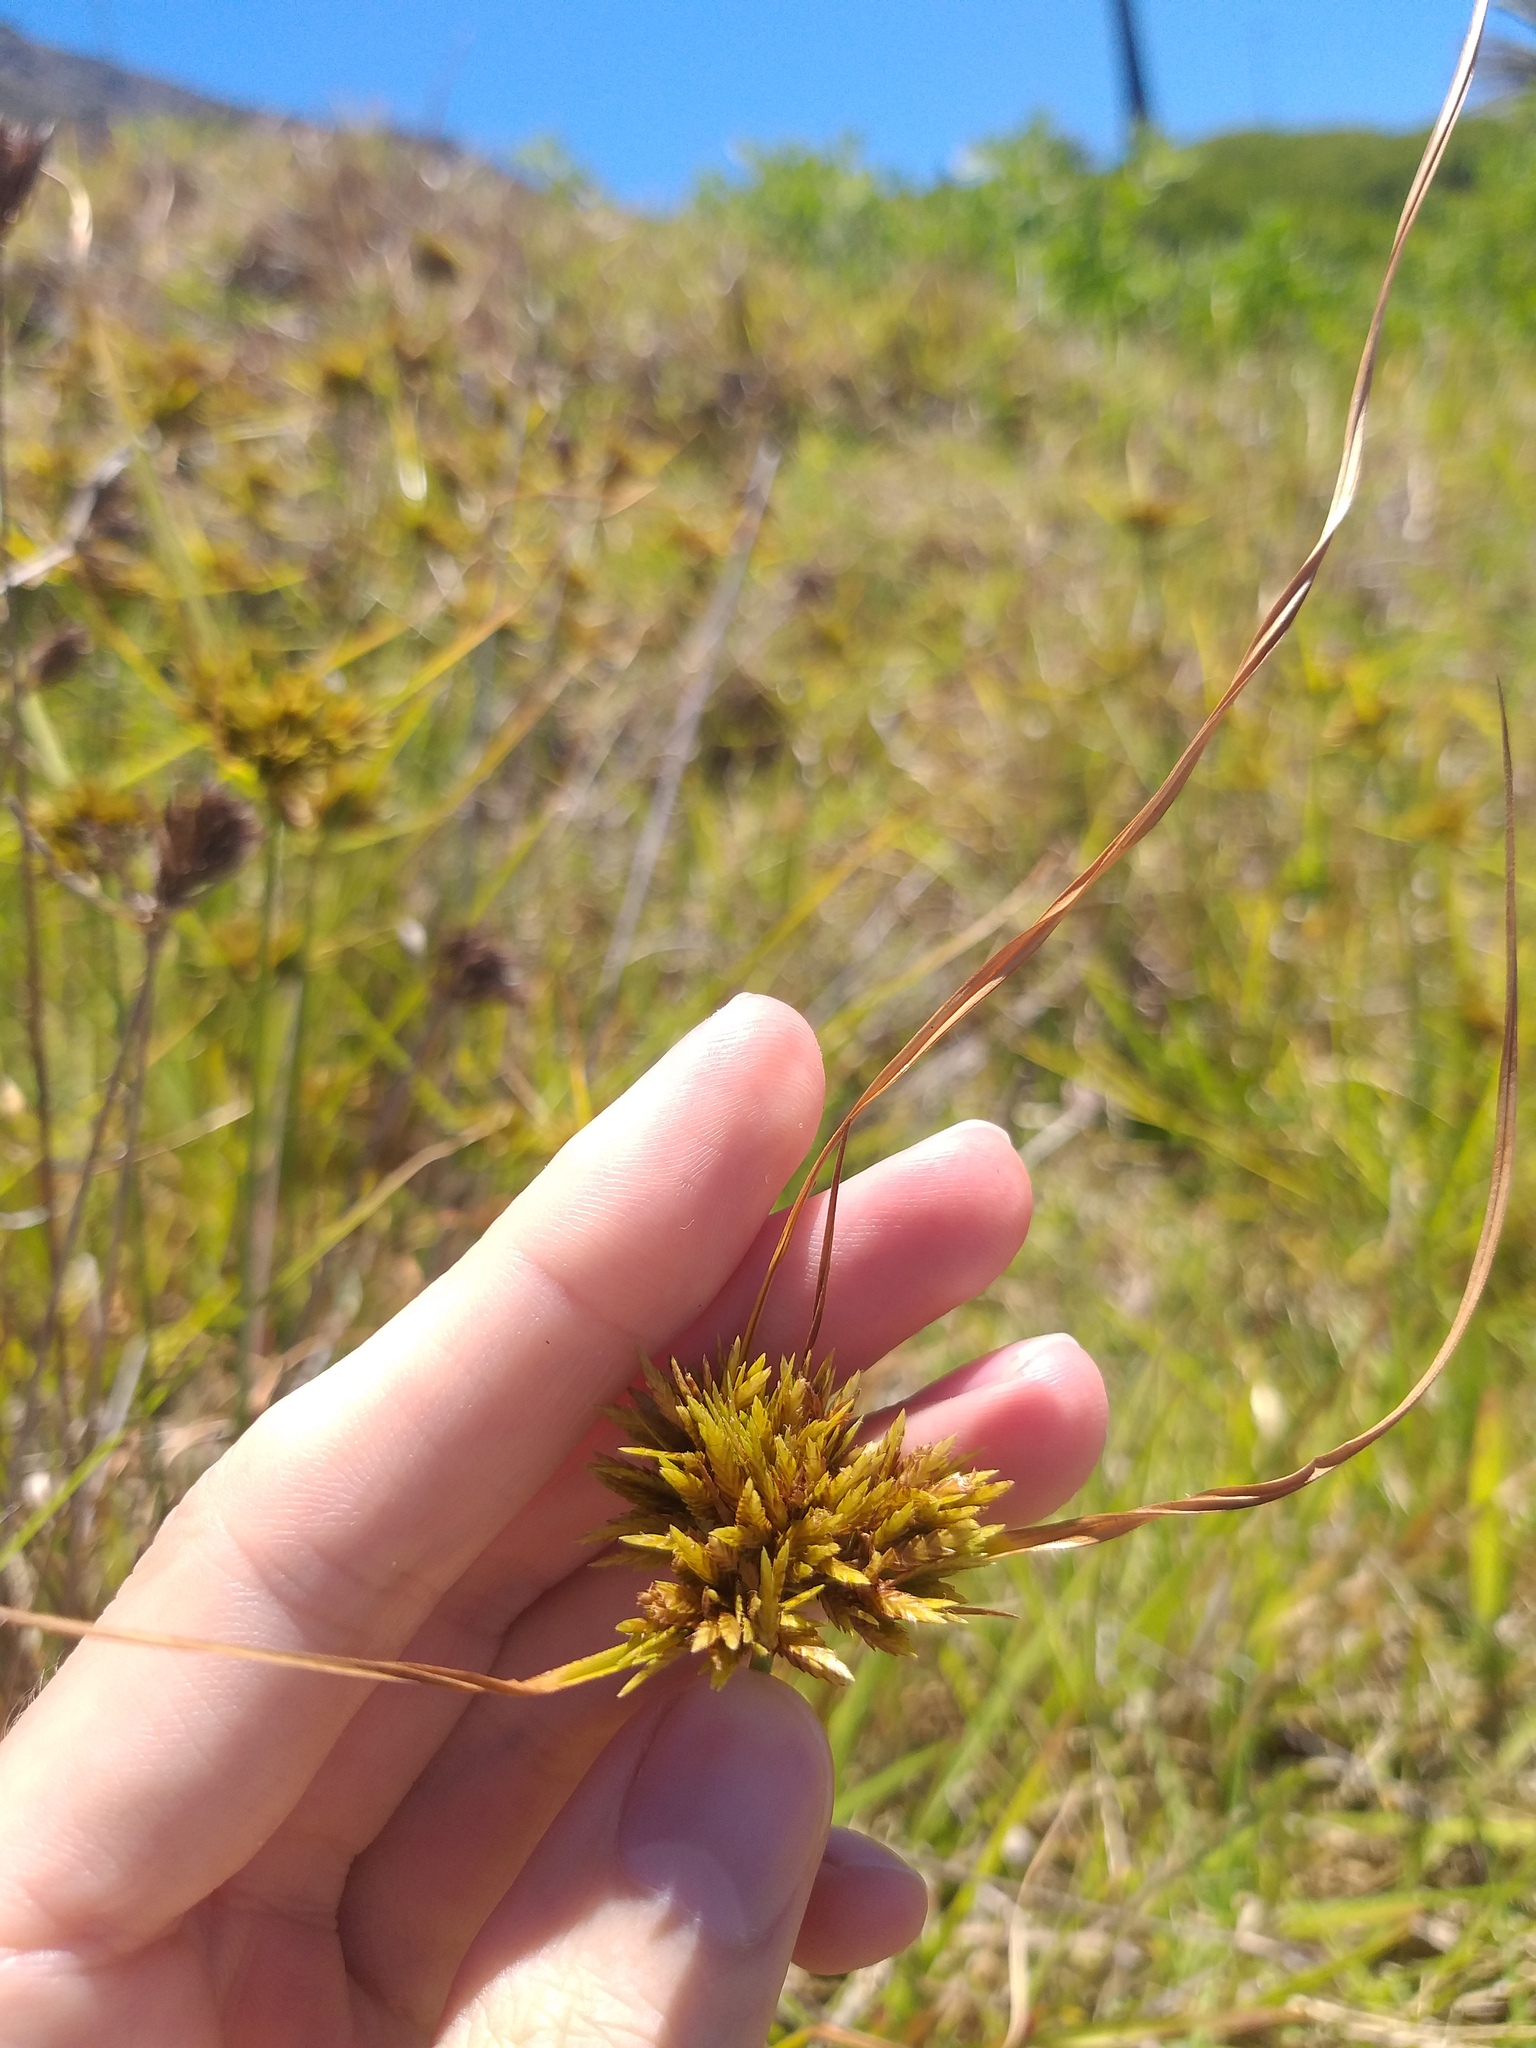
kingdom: Plantae
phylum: Tracheophyta
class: Liliopsida
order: Poales
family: Cyperaceae
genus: Cyperus
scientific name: Cyperus polystachyos
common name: Bunchy flat sedge
